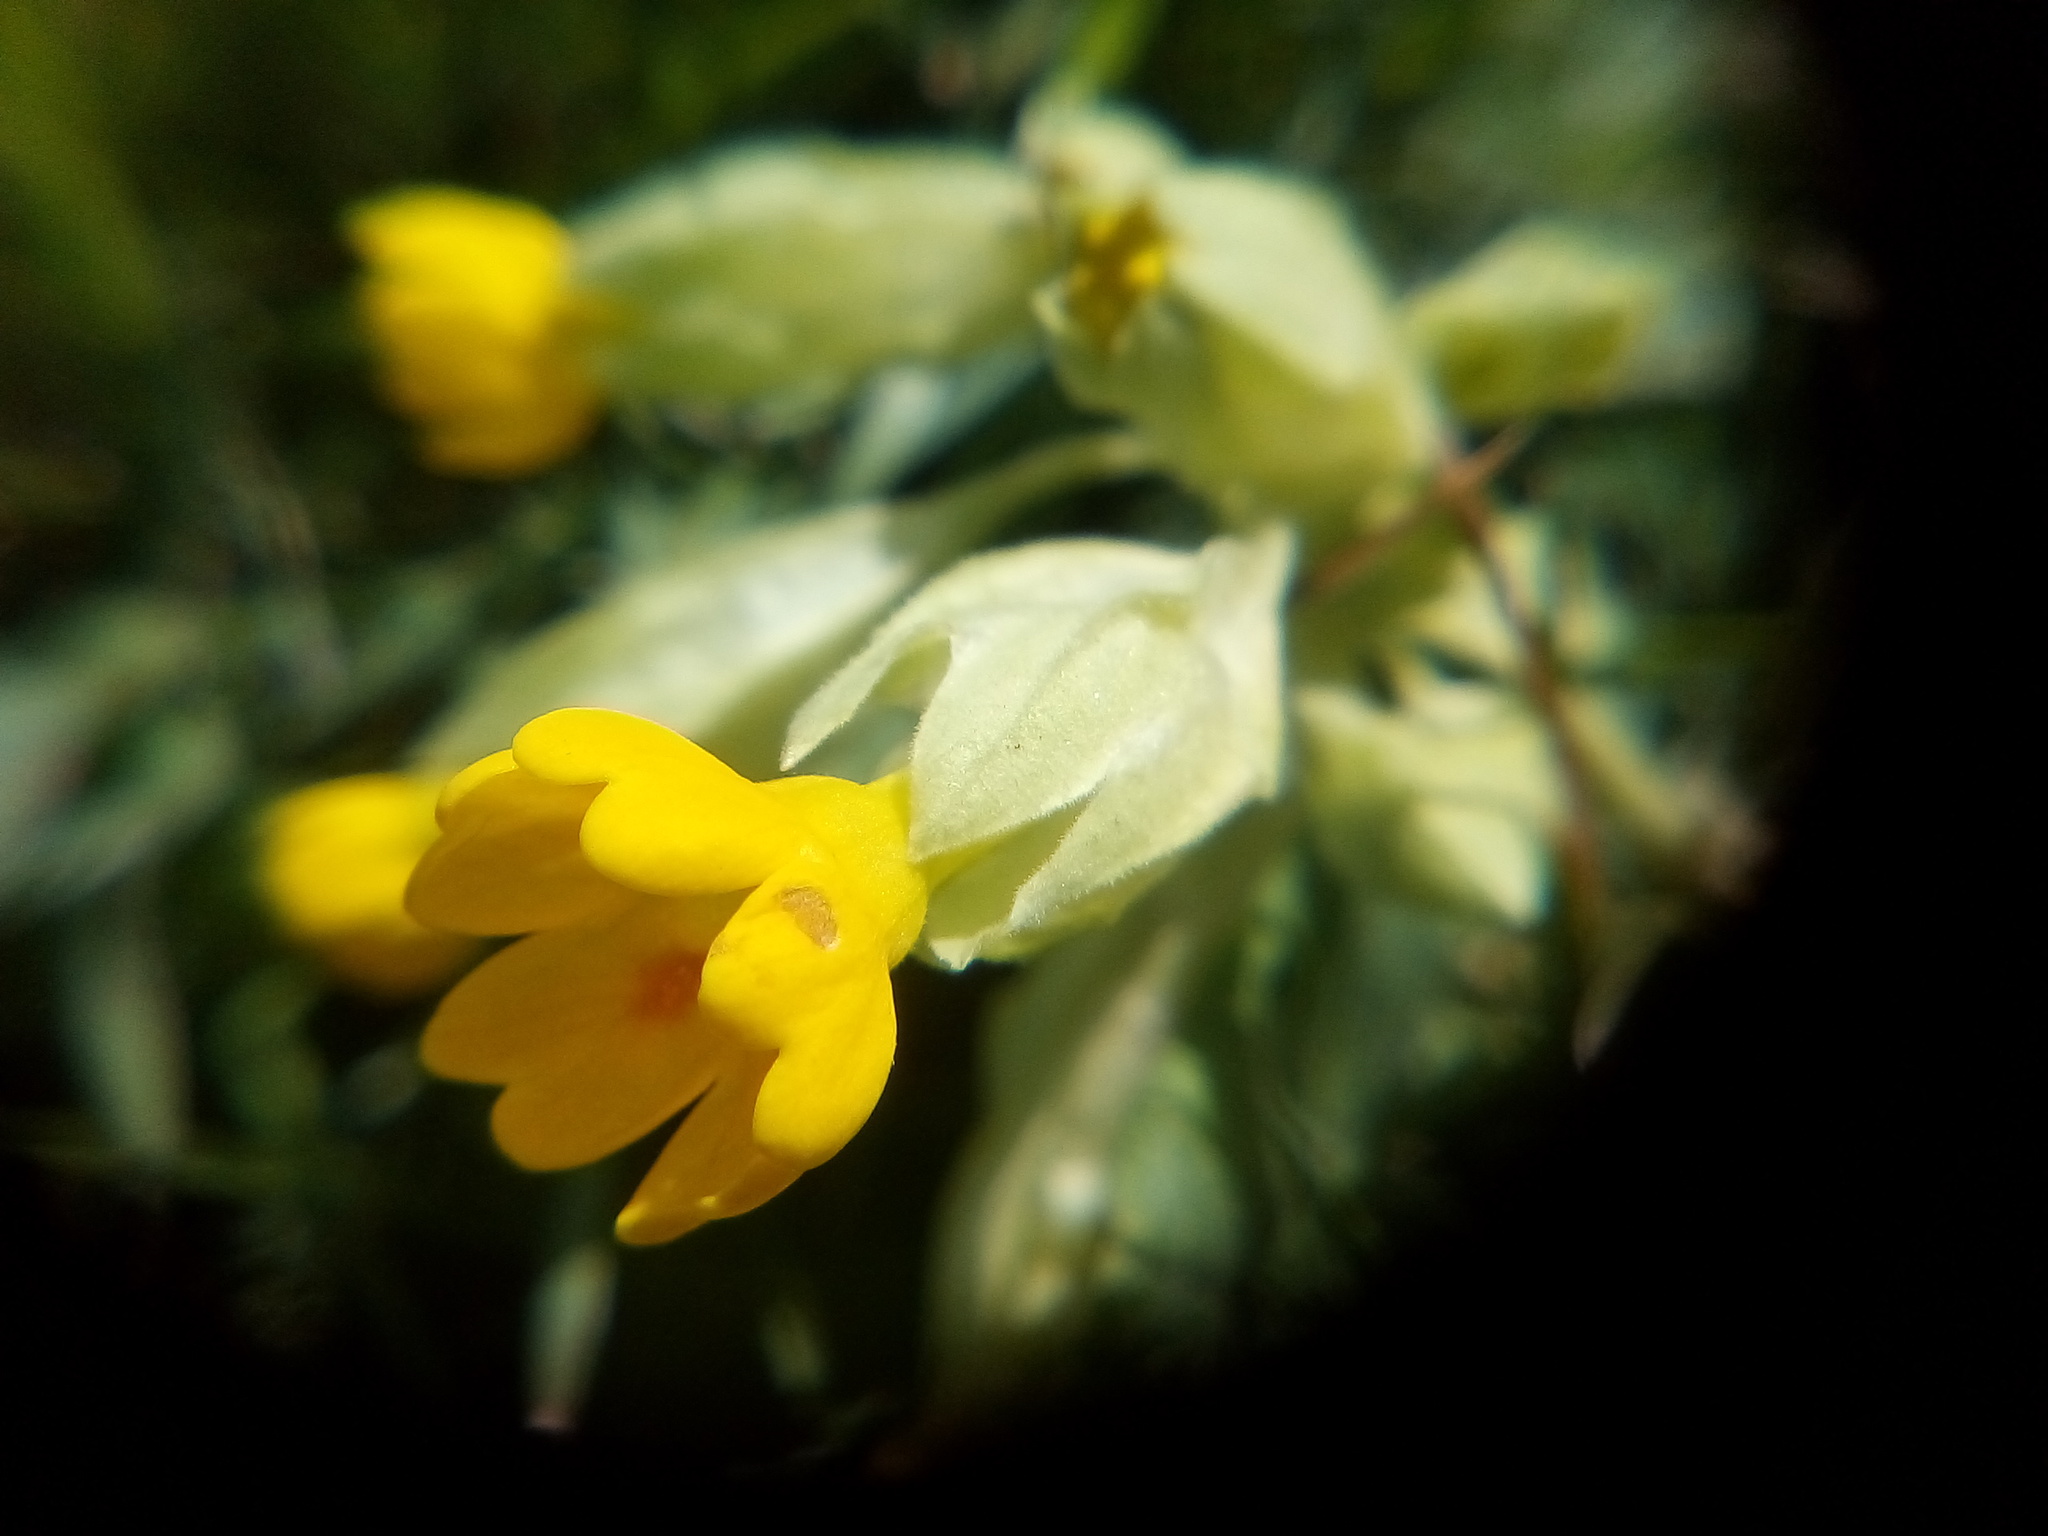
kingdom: Plantae
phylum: Tracheophyta
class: Magnoliopsida
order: Ericales
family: Primulaceae
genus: Primula
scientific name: Primula veris
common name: Cowslip
